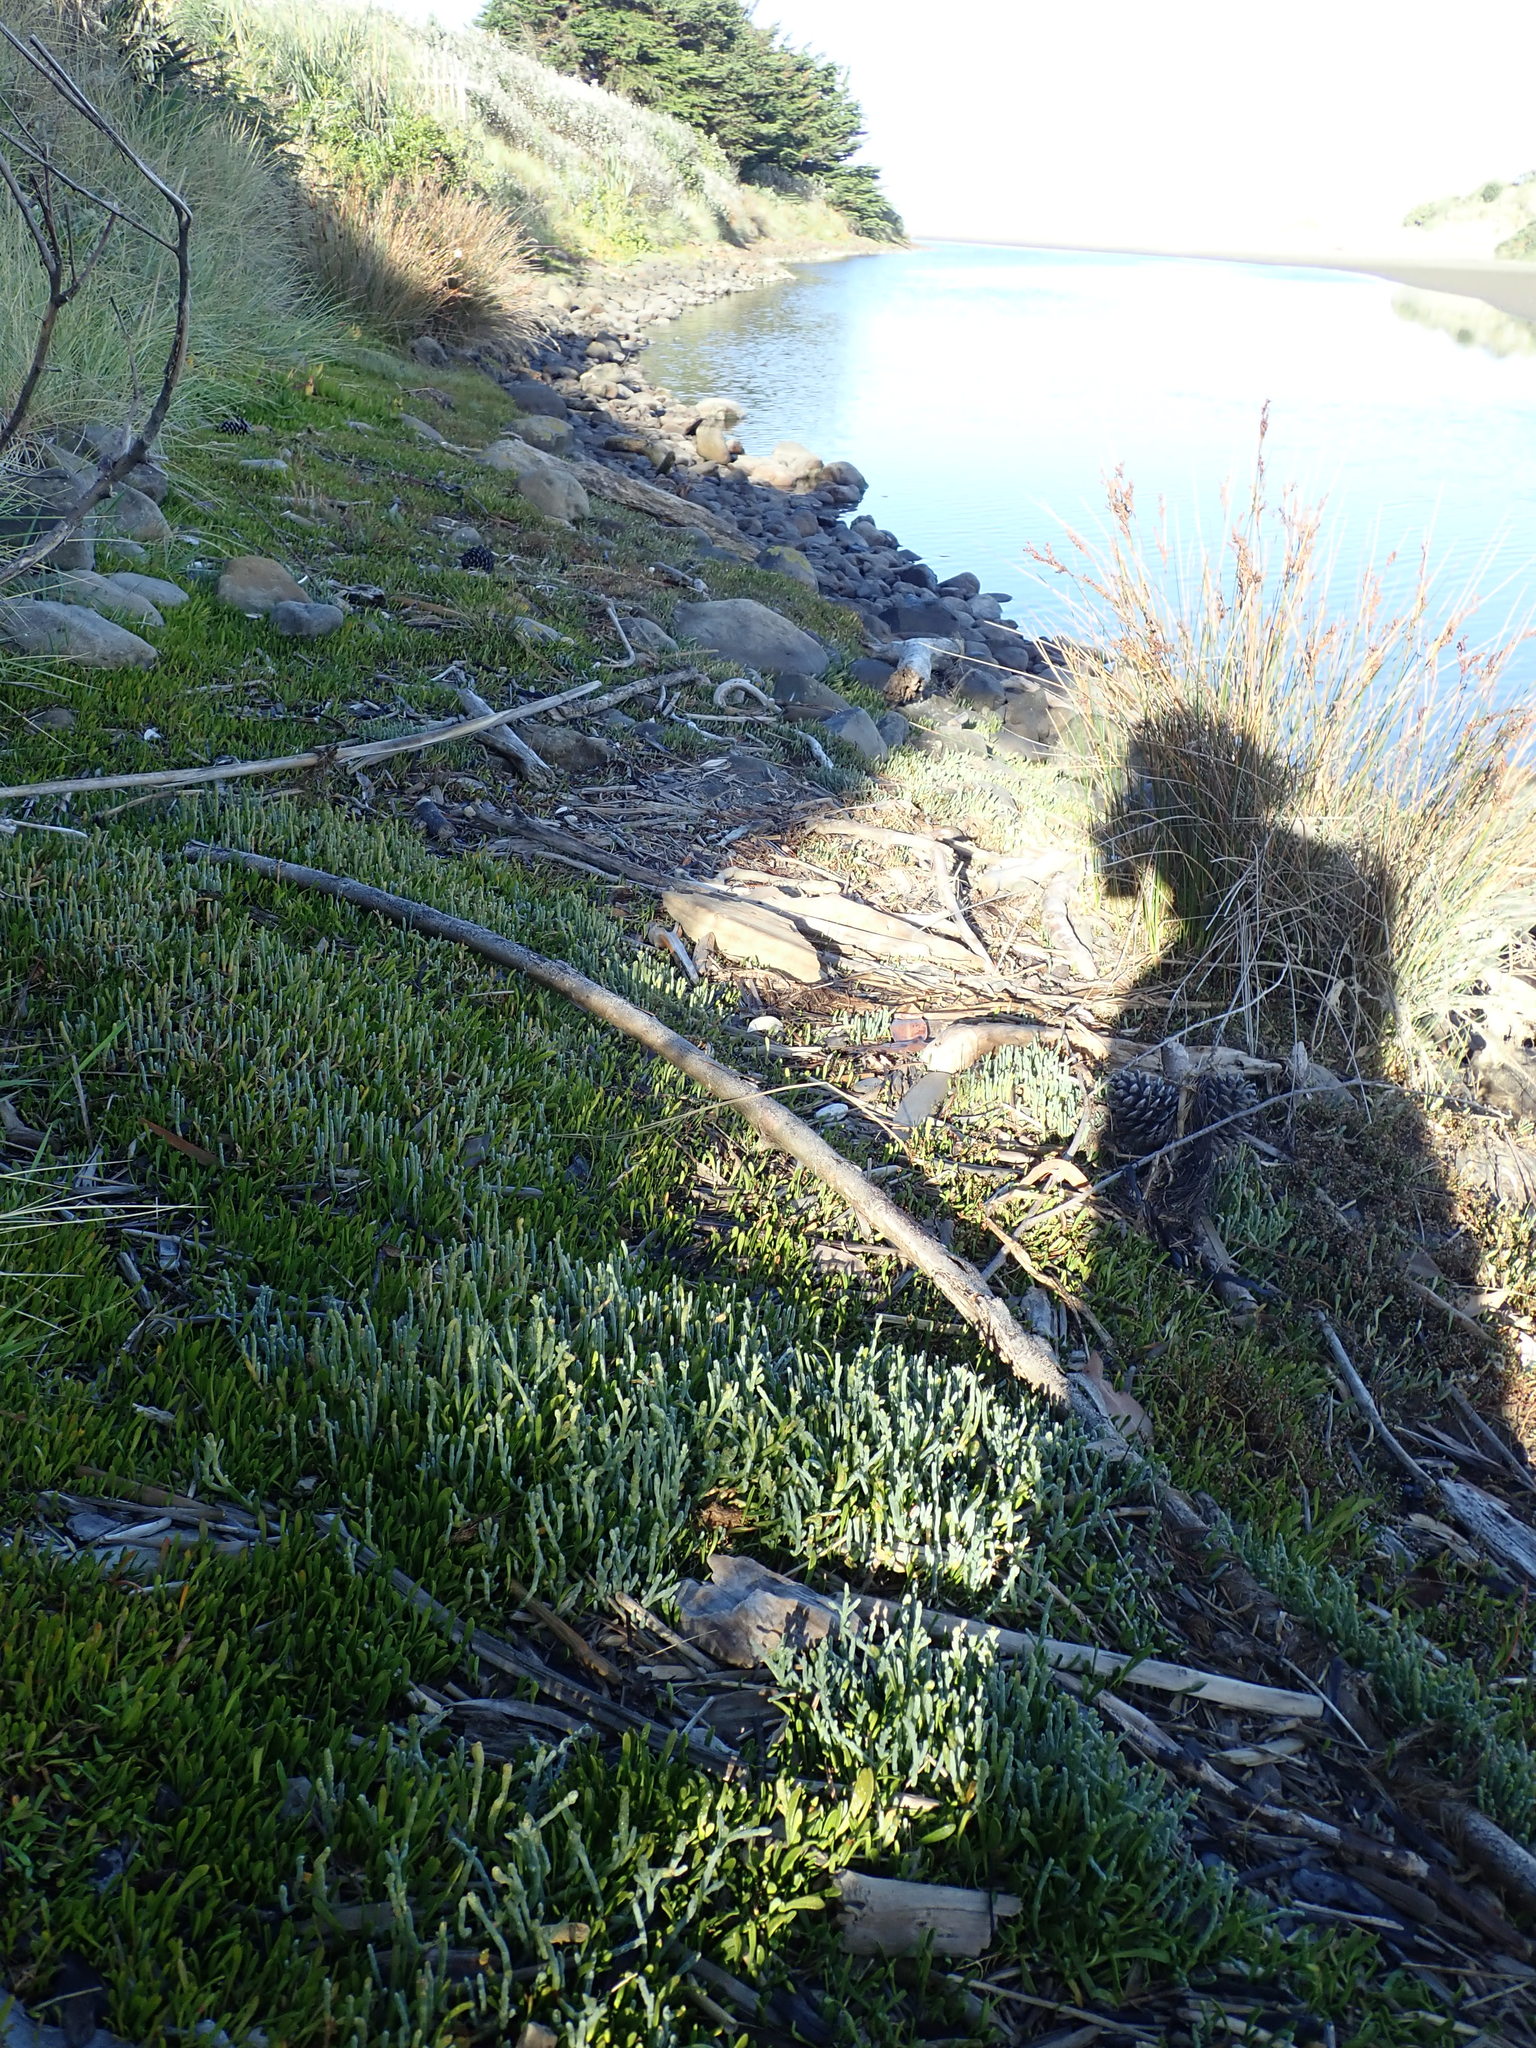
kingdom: Plantae
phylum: Tracheophyta
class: Magnoliopsida
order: Caryophyllales
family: Amaranthaceae
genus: Salicornia
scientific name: Salicornia quinqueflora
